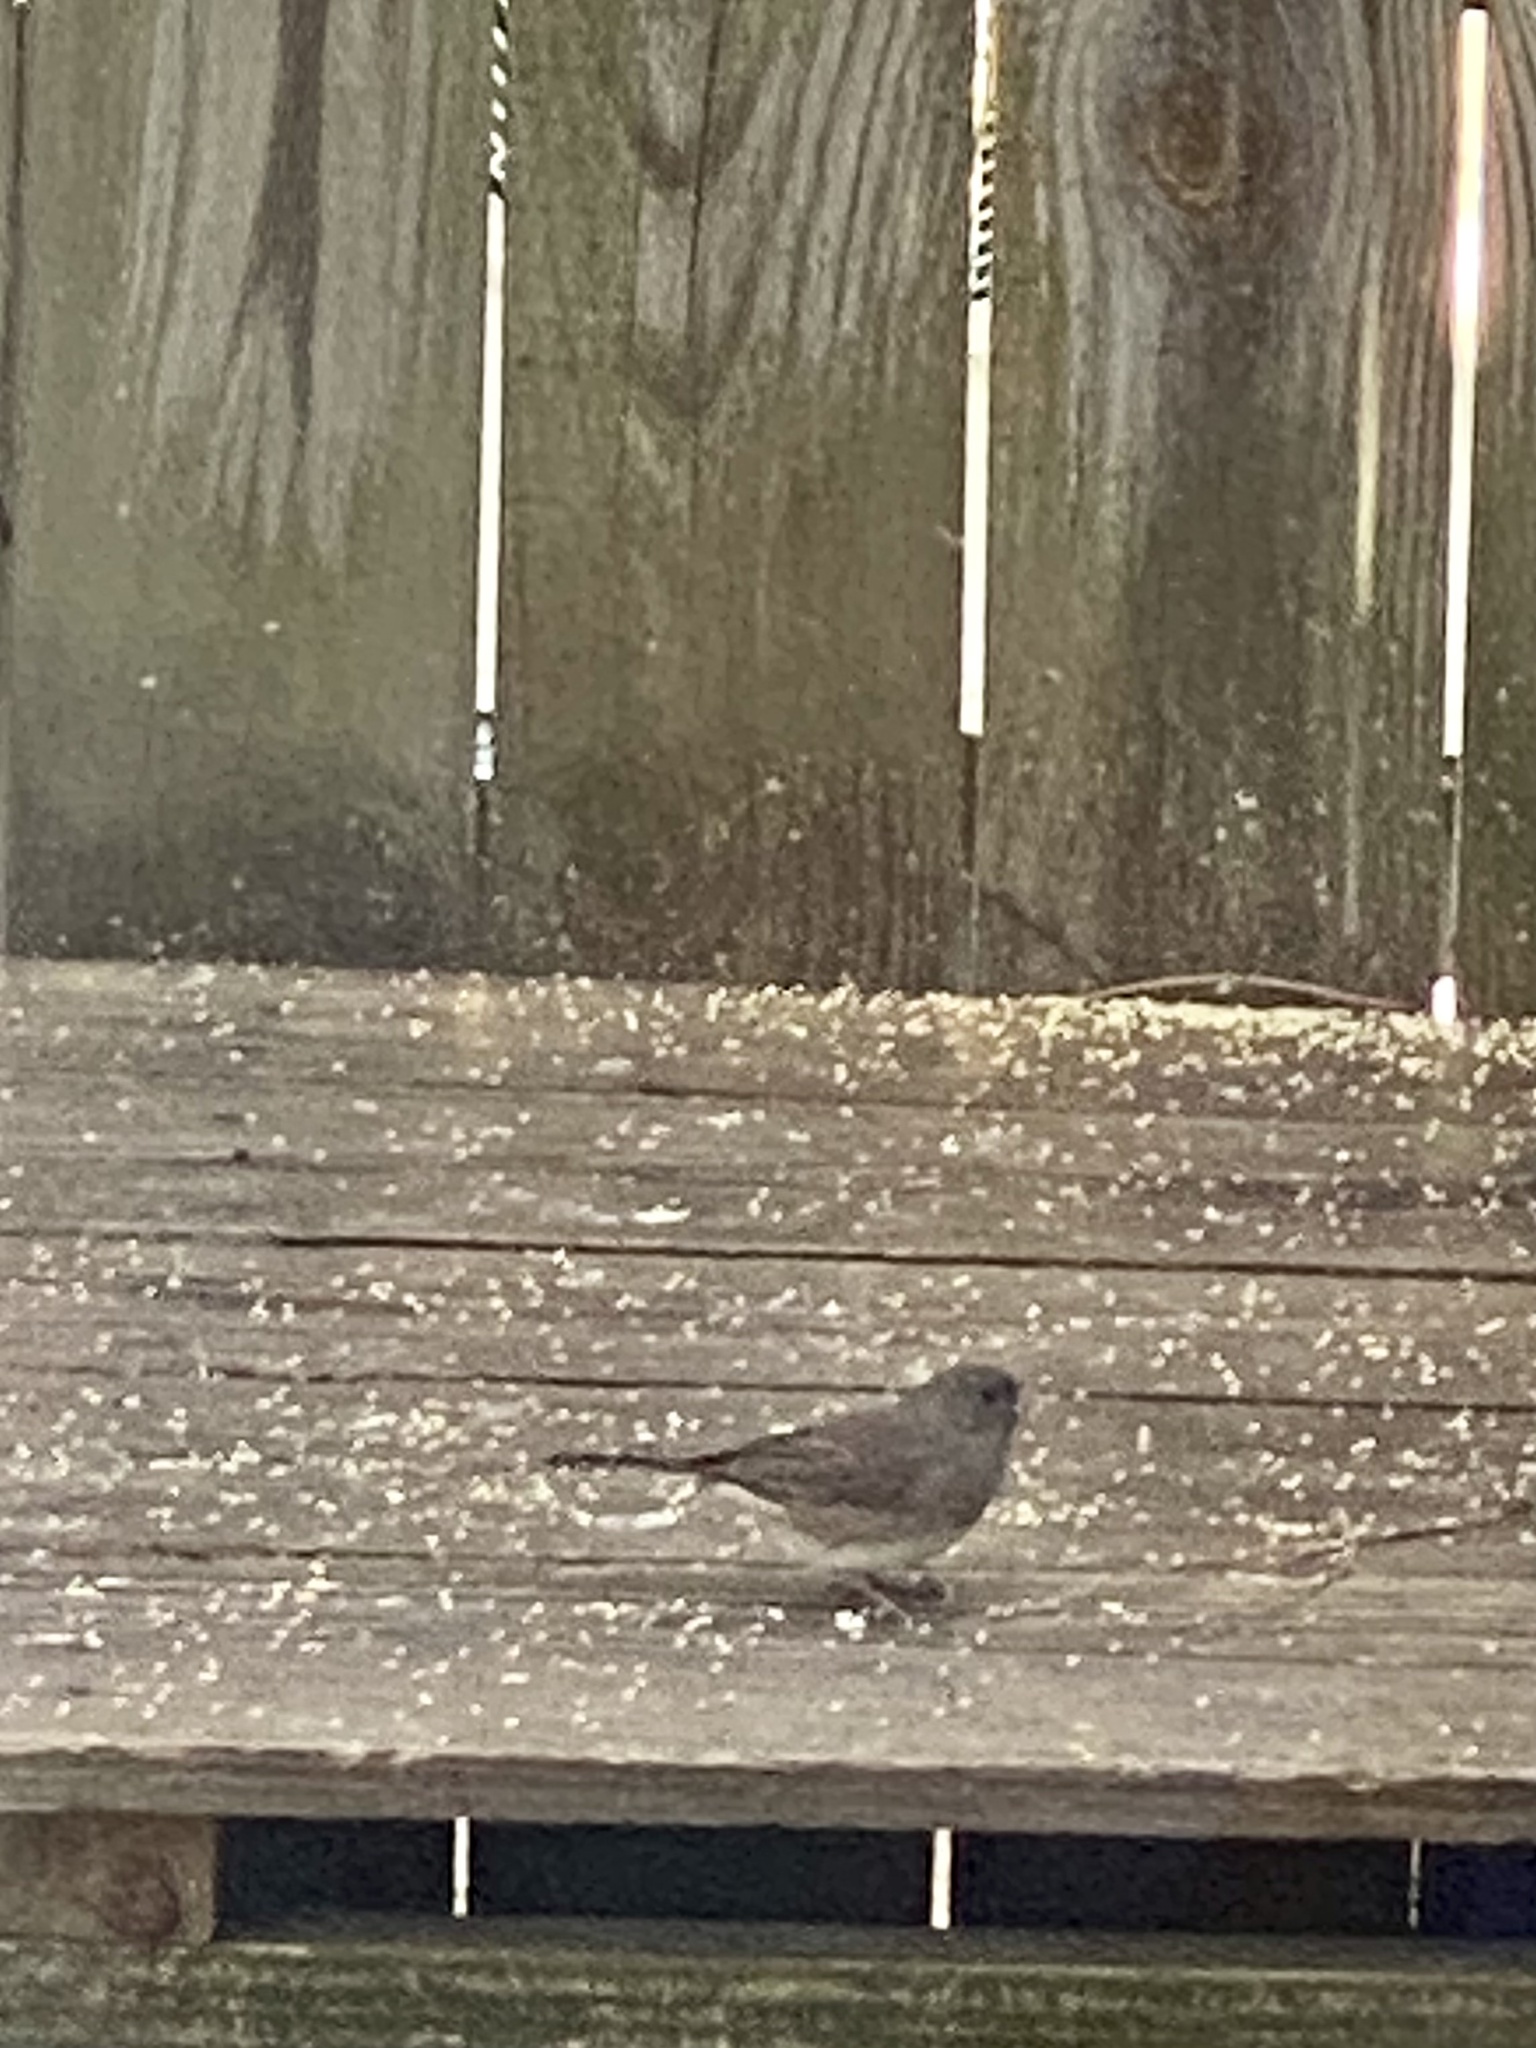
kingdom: Animalia
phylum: Chordata
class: Aves
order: Passeriformes
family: Passerellidae
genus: Junco
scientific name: Junco hyemalis
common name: Dark-eyed junco
